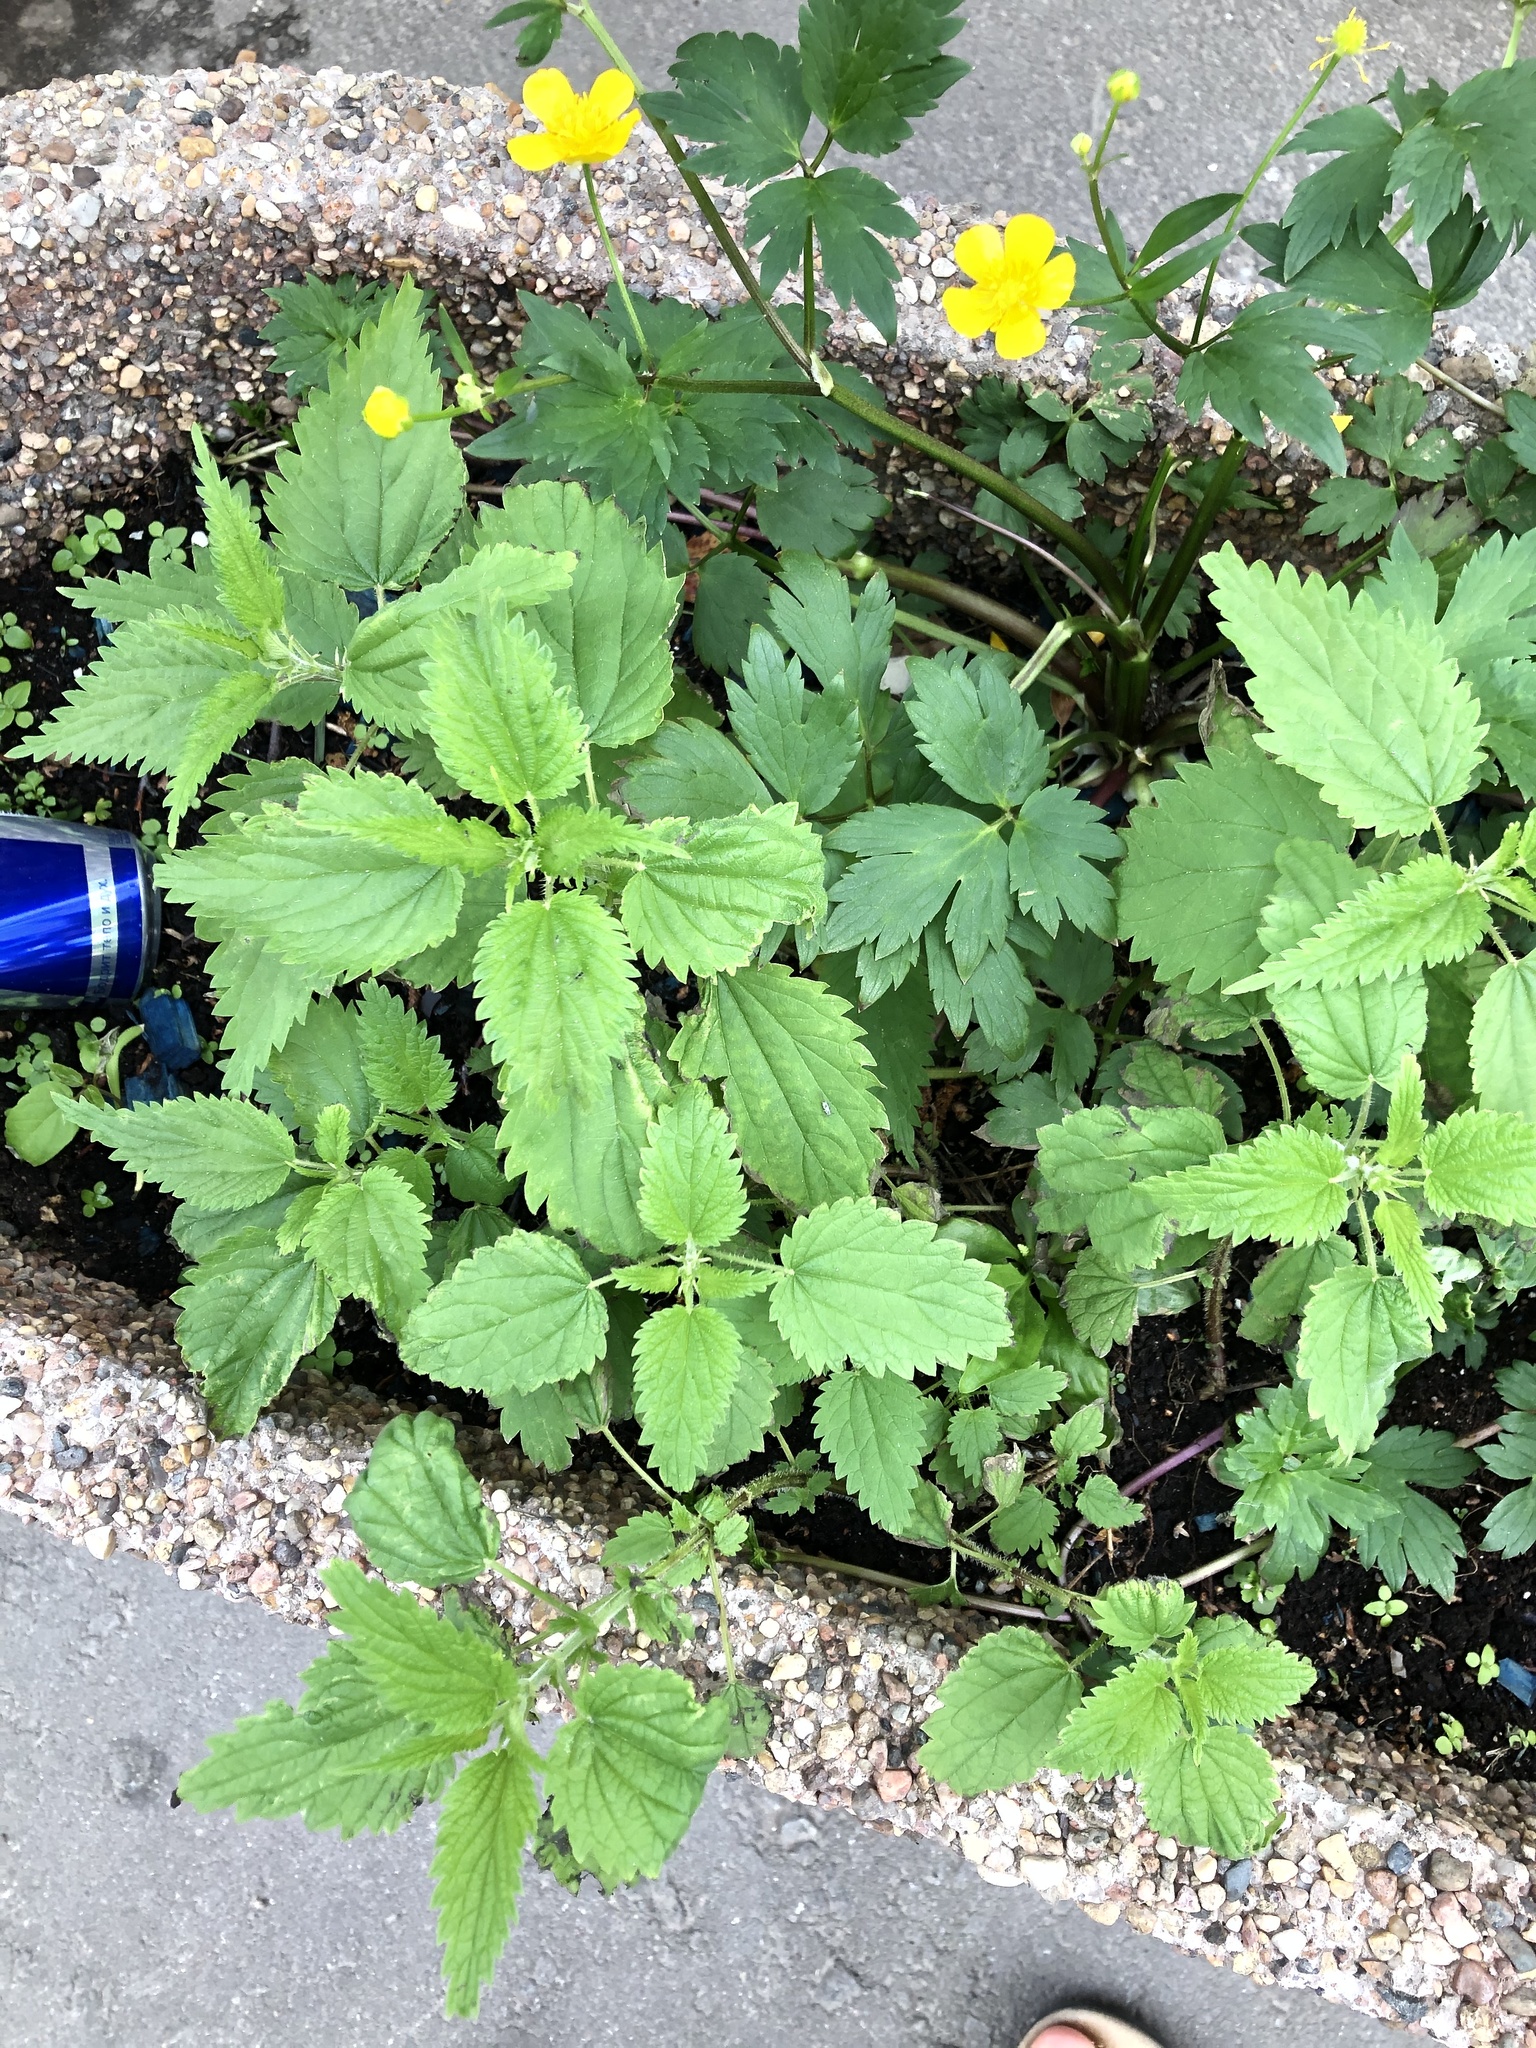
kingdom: Plantae
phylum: Tracheophyta
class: Magnoliopsida
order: Rosales
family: Urticaceae
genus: Urtica
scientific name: Urtica dioica
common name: Common nettle
